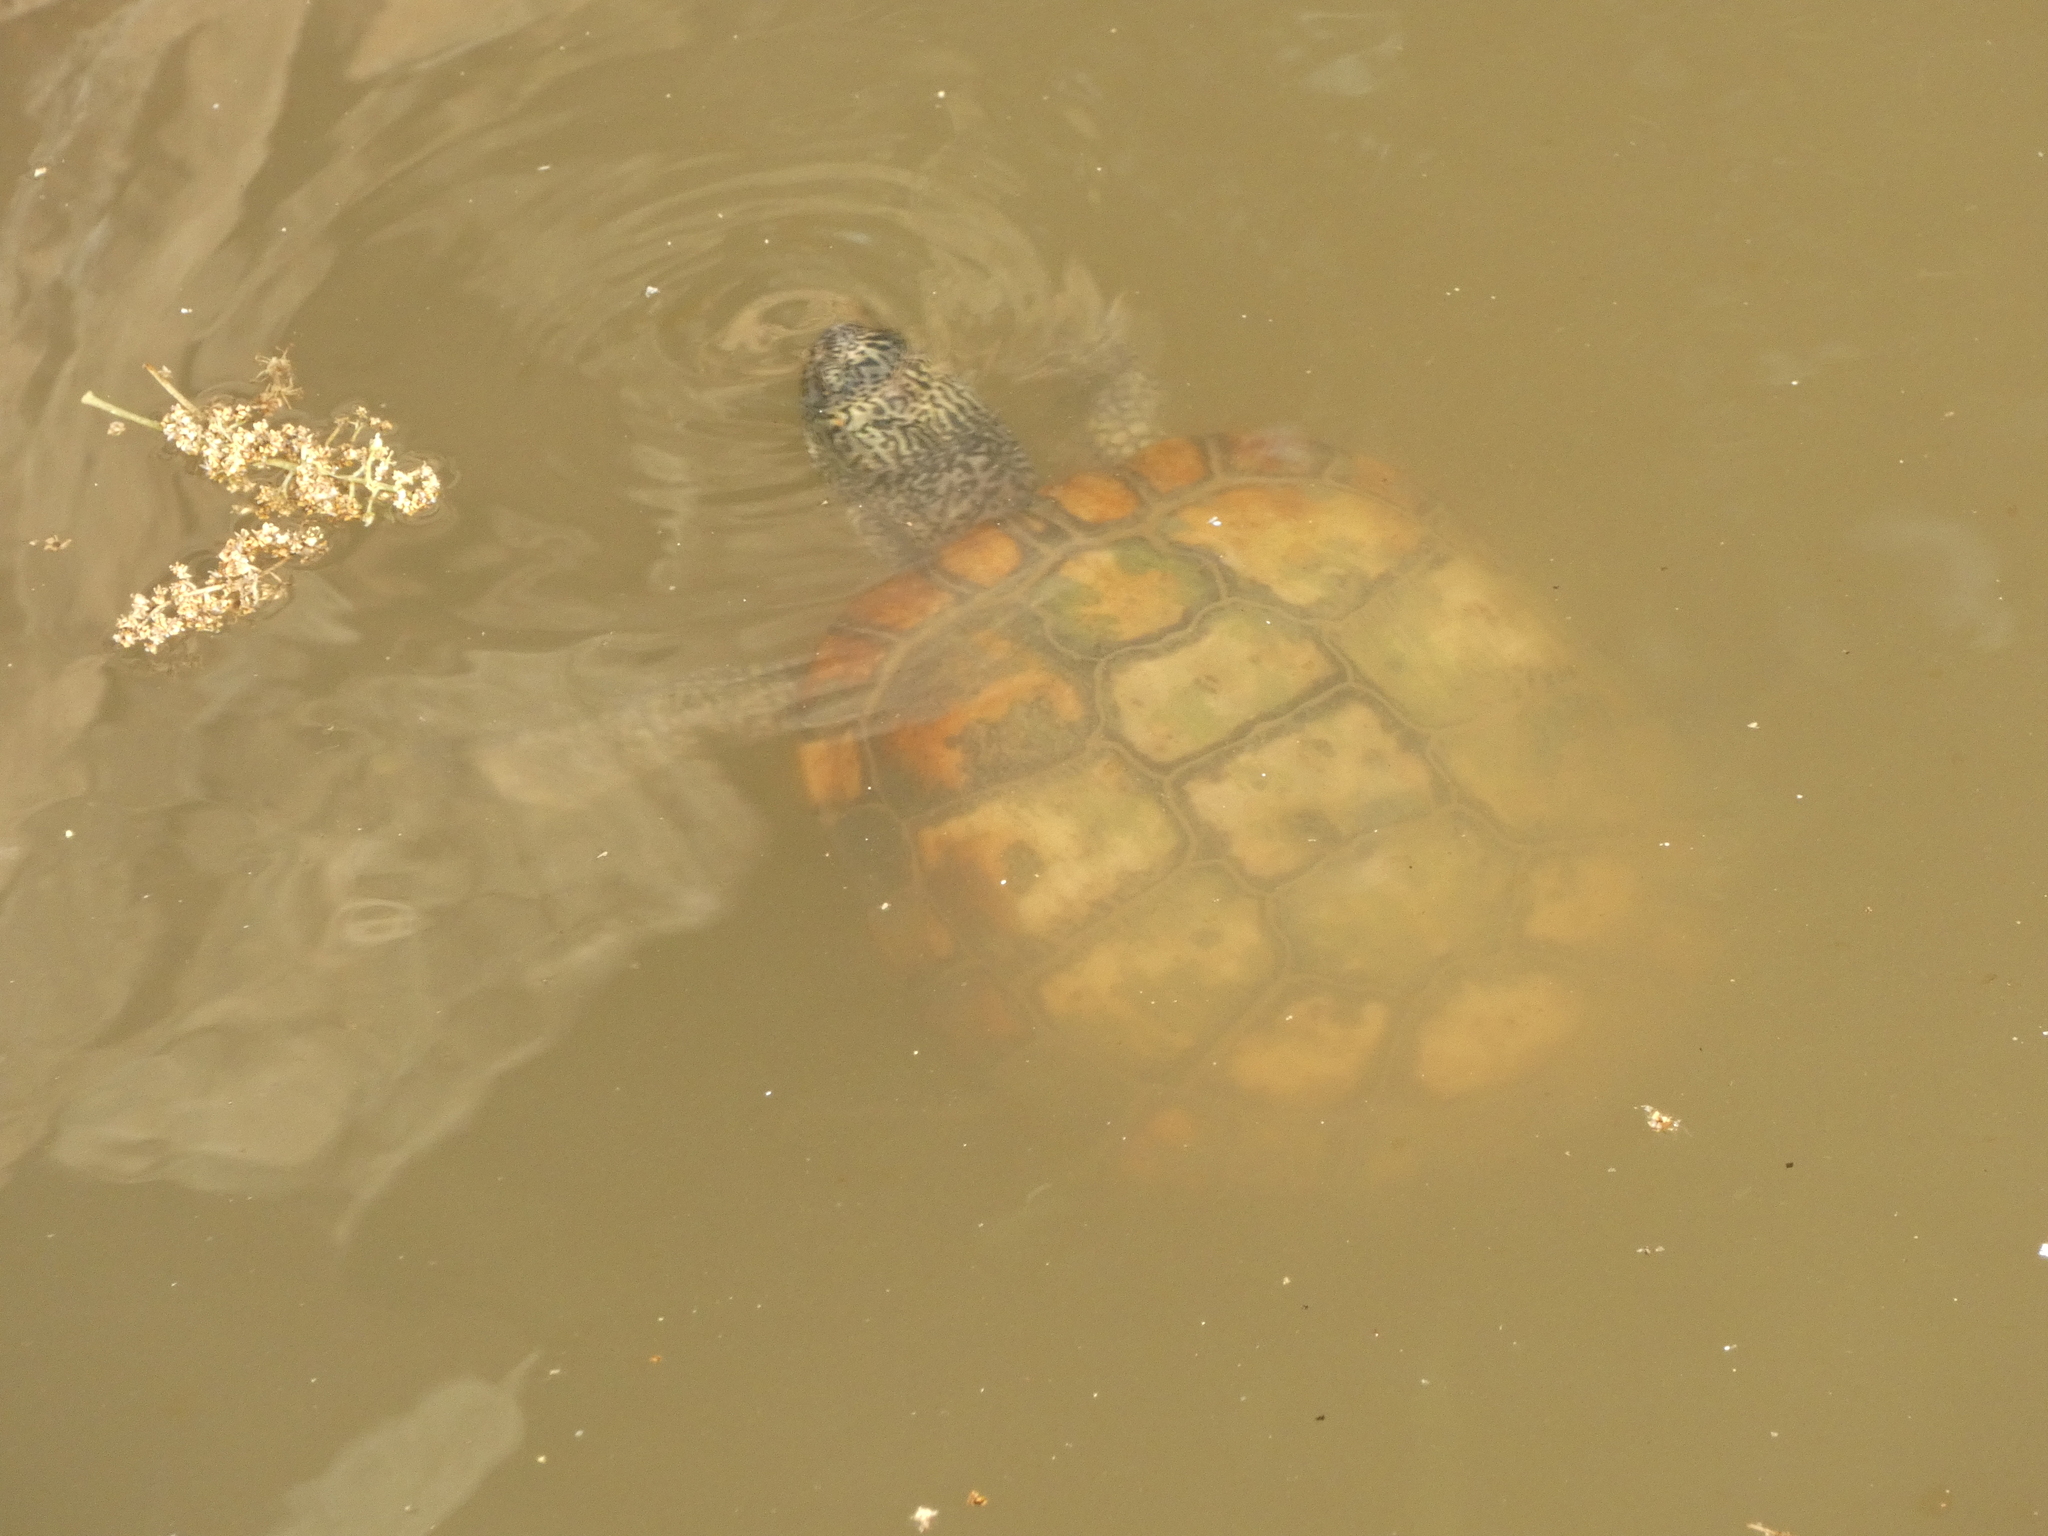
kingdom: Animalia
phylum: Chordata
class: Testudines
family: Emydidae
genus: Trachemys
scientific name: Trachemys scripta
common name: Slider
